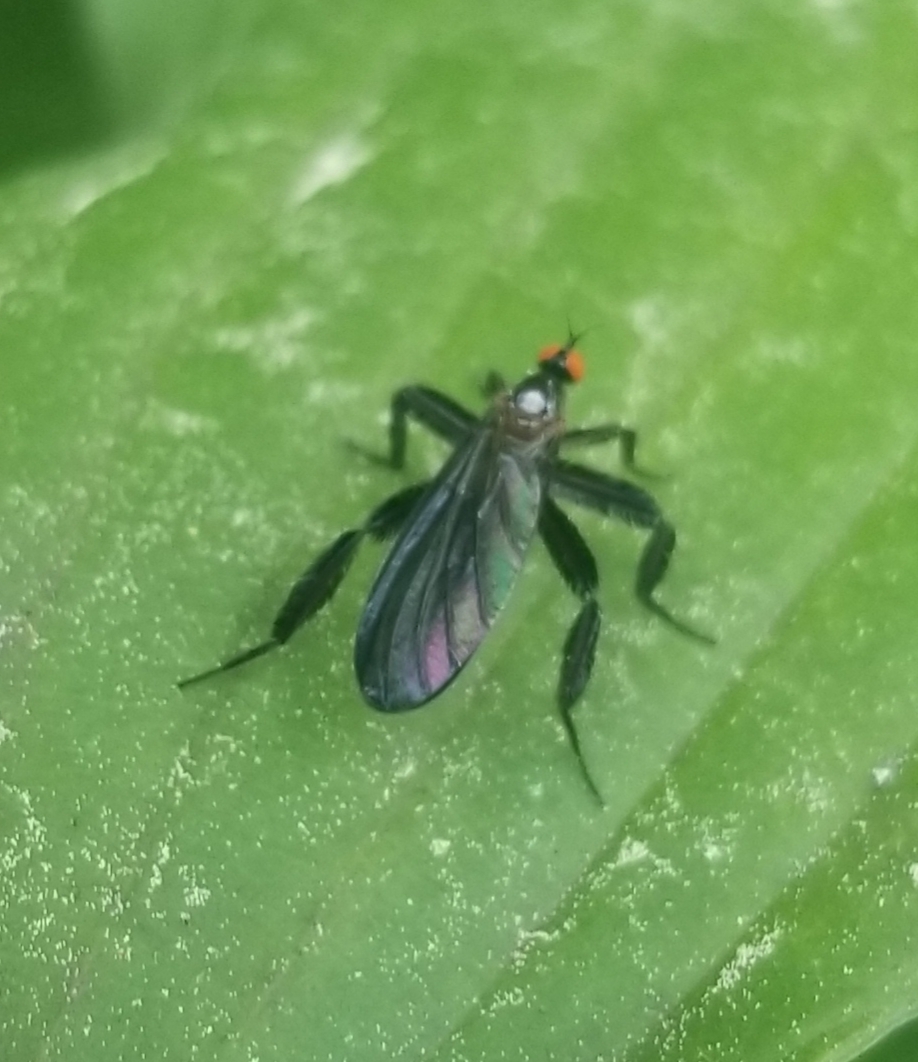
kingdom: Animalia
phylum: Arthropoda
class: Insecta
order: Diptera
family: Empididae
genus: Rhamphomyia
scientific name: Rhamphomyia longicauda
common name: Long-tailed dance fly
